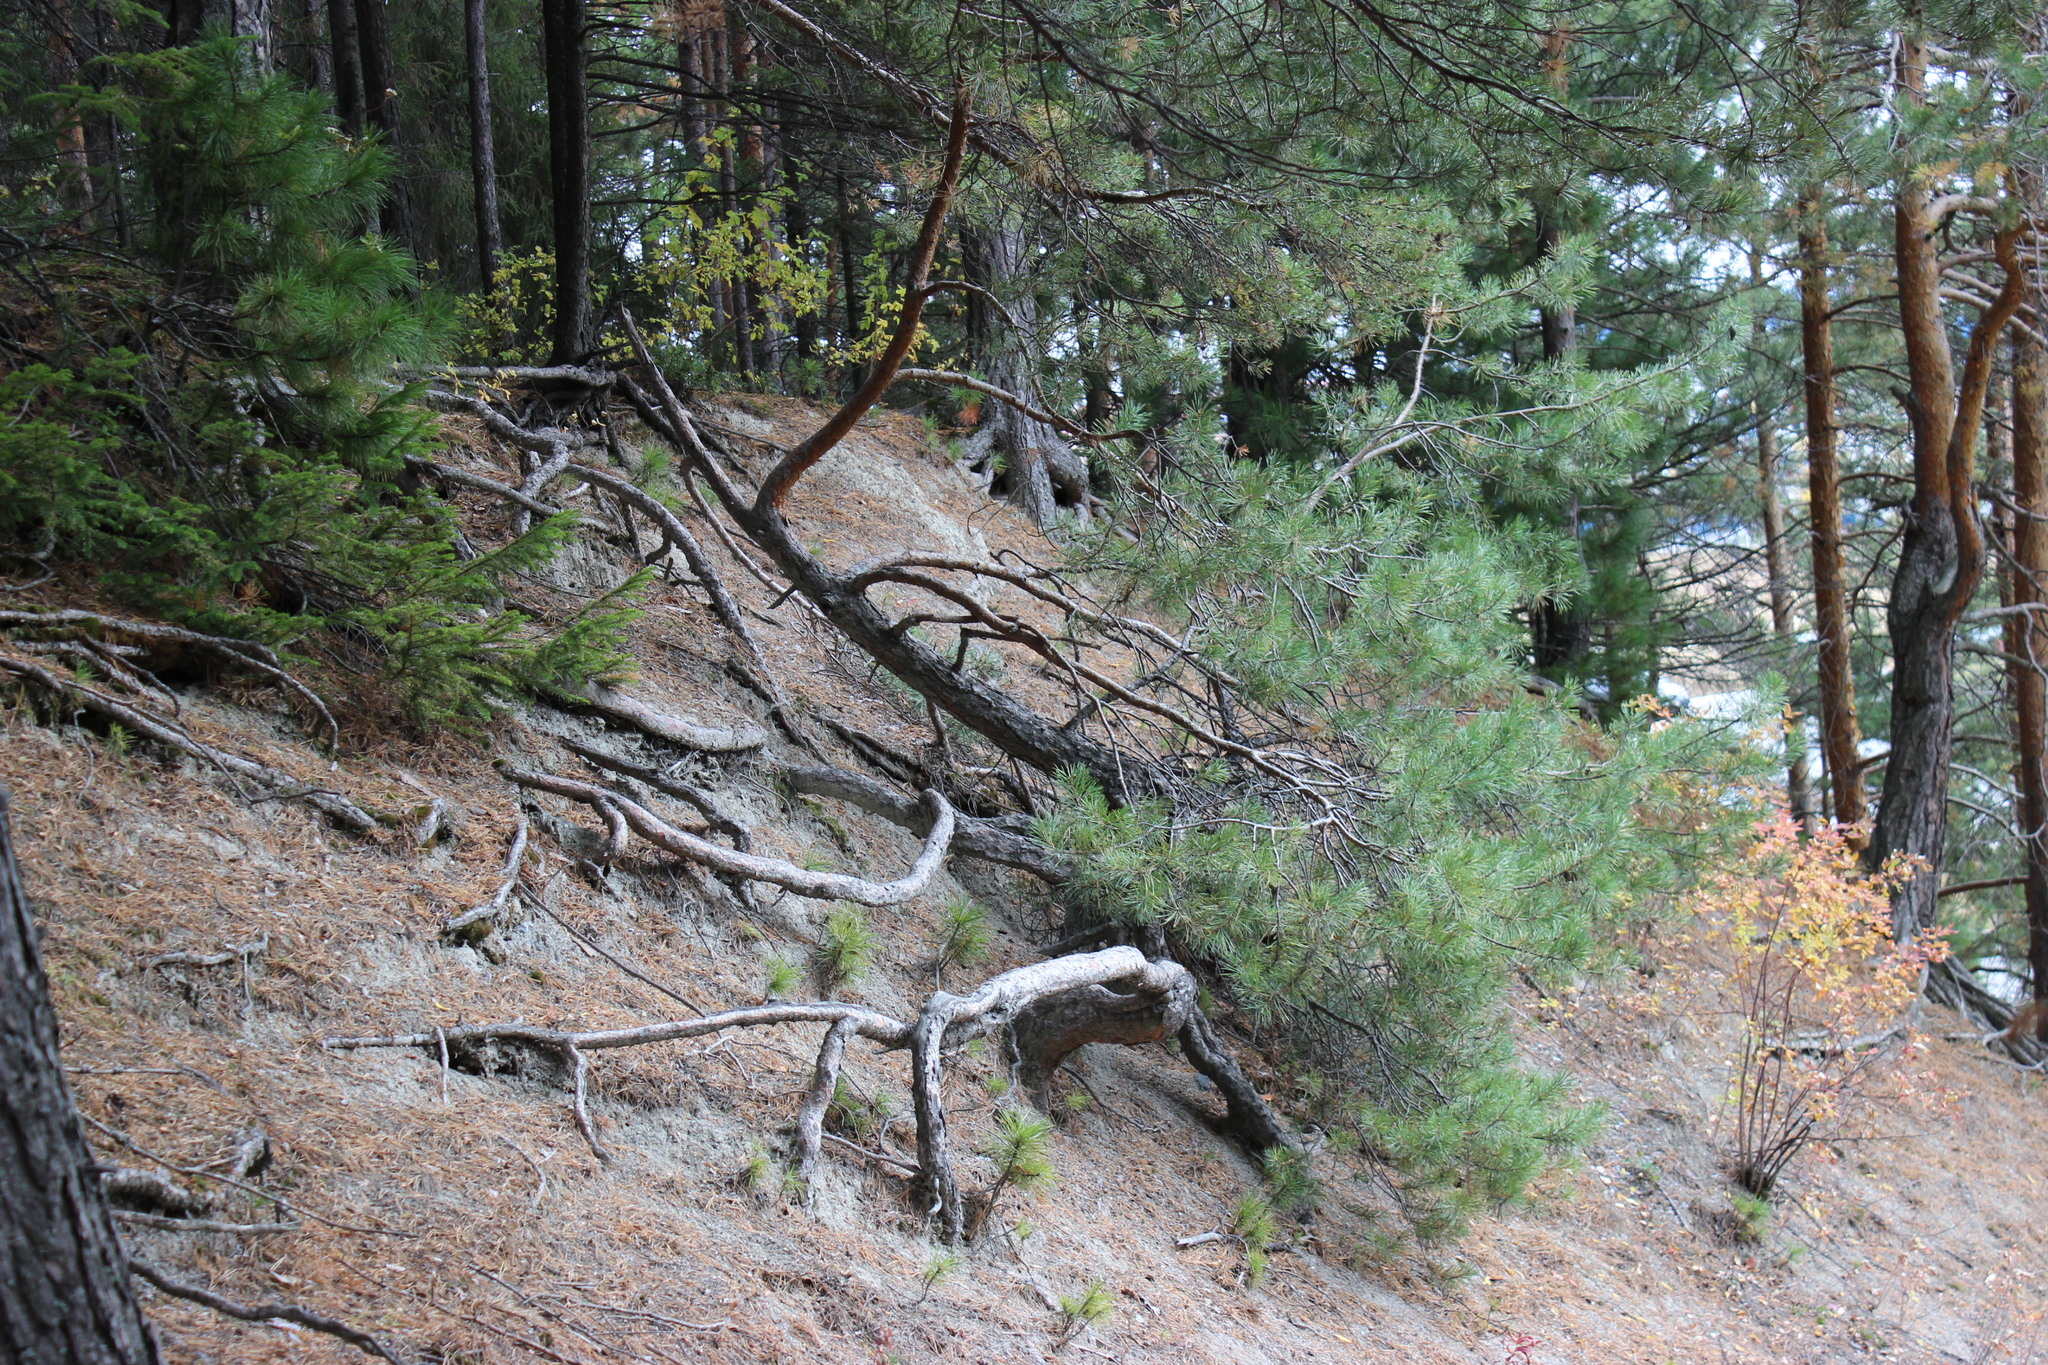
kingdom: Plantae
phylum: Tracheophyta
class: Pinopsida
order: Pinales
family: Pinaceae
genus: Pinus
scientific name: Pinus sylvestris
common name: Scots pine
